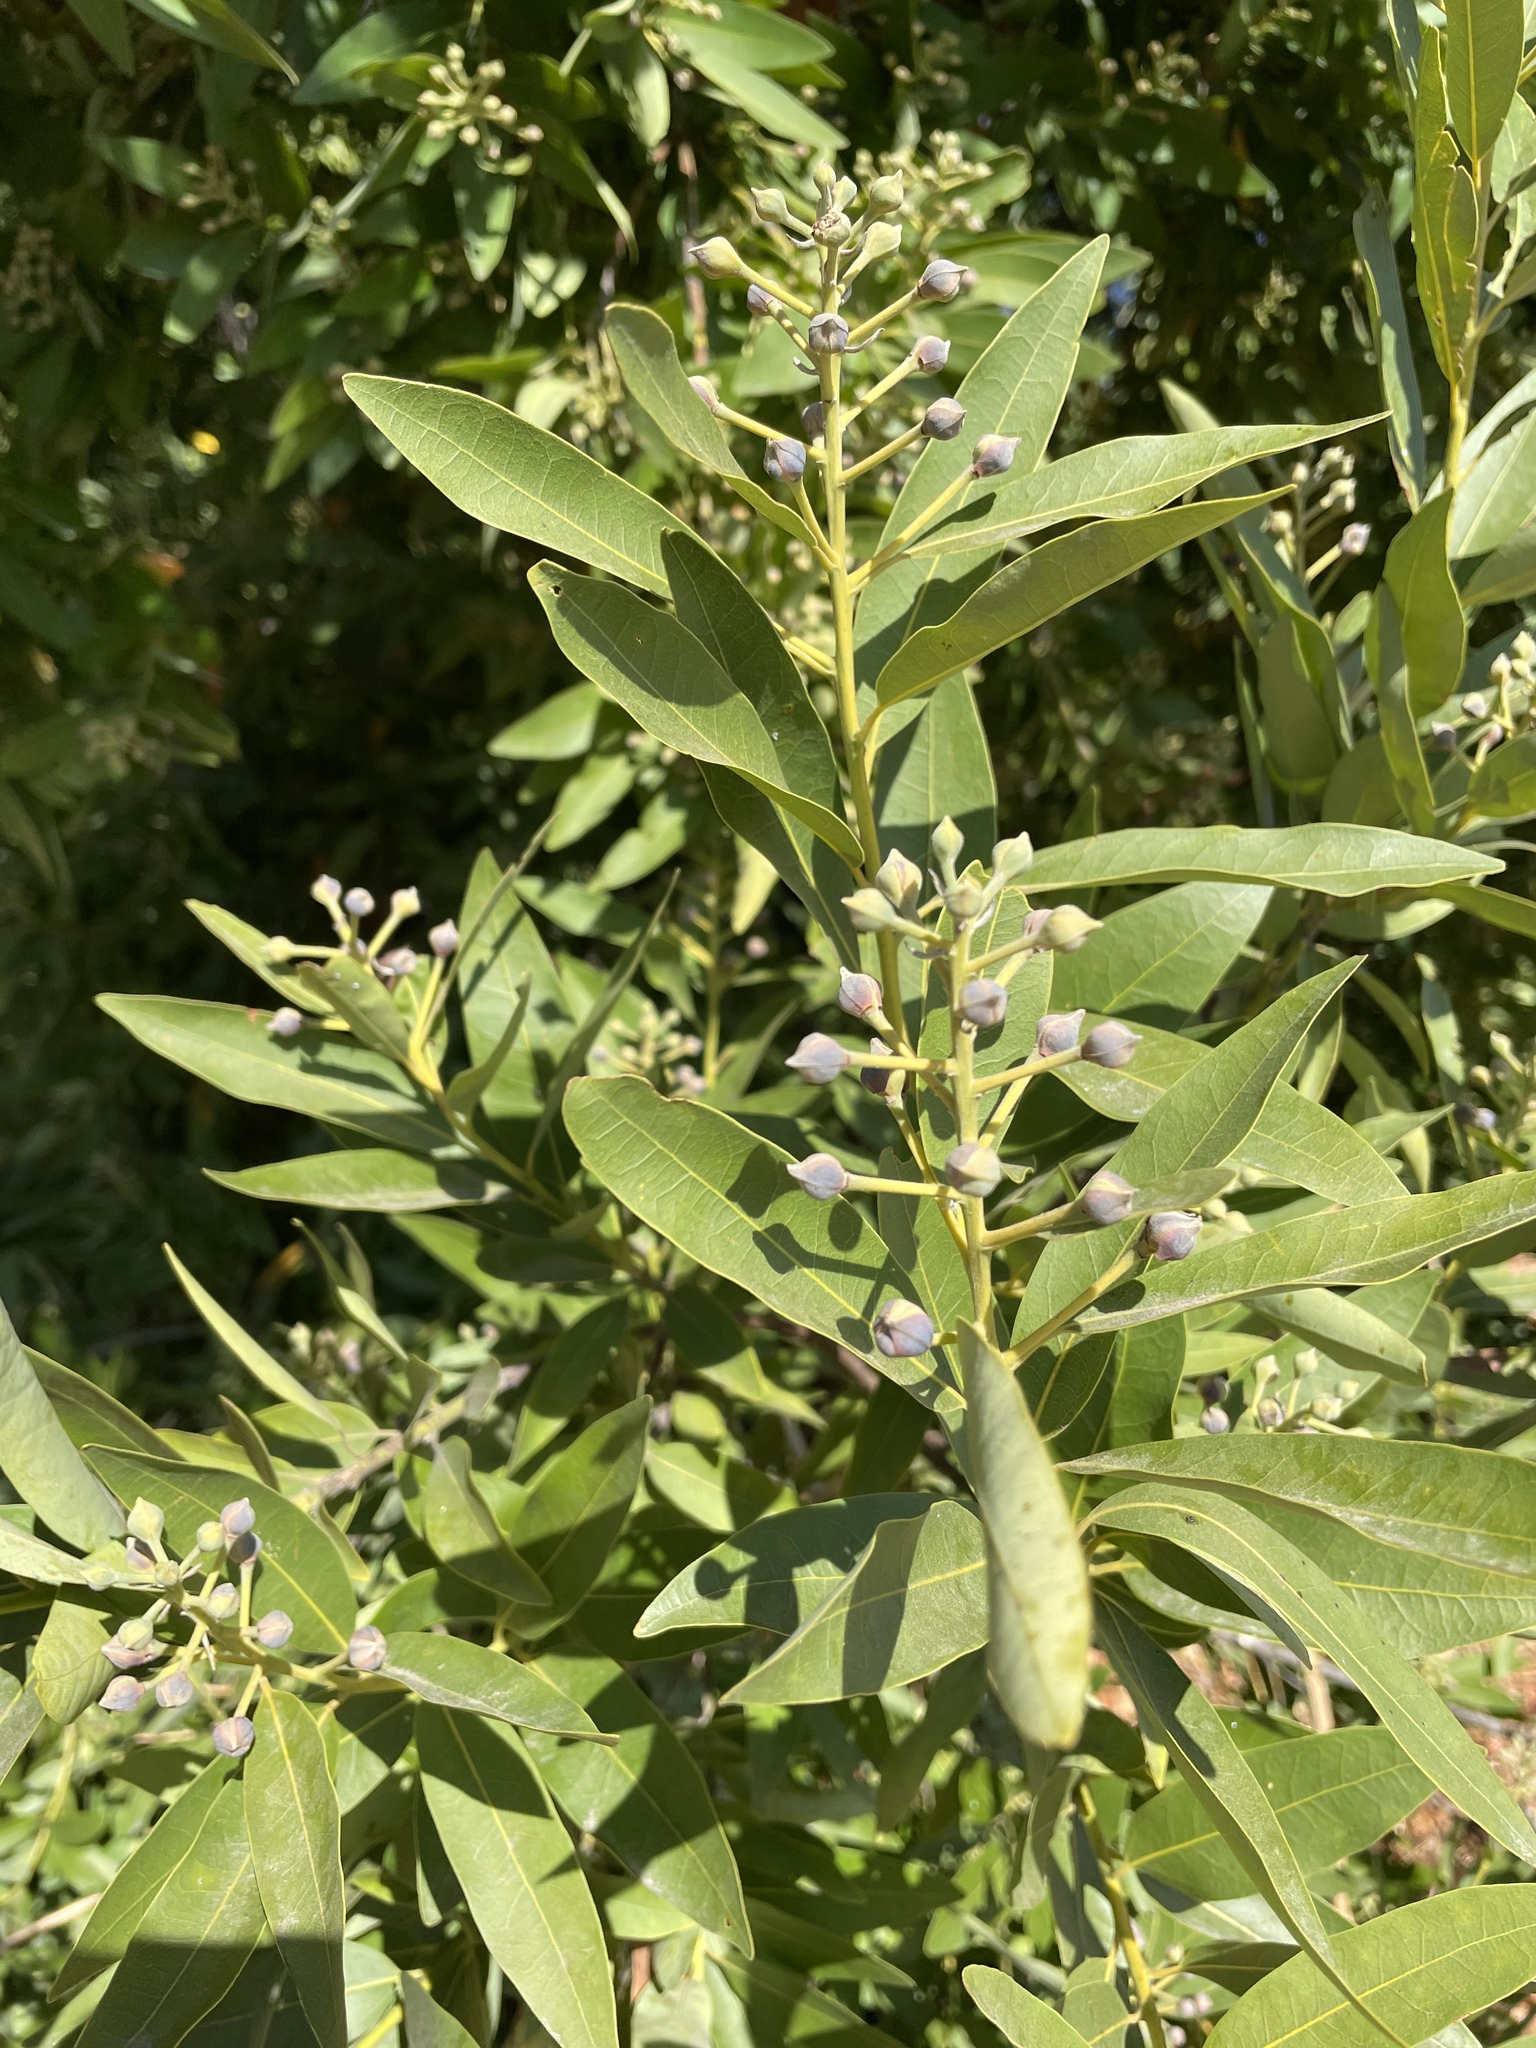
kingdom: Plantae
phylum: Tracheophyta
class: Magnoliopsida
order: Laurales
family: Lauraceae
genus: Umbellularia
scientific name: Umbellularia californica
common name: California bay
